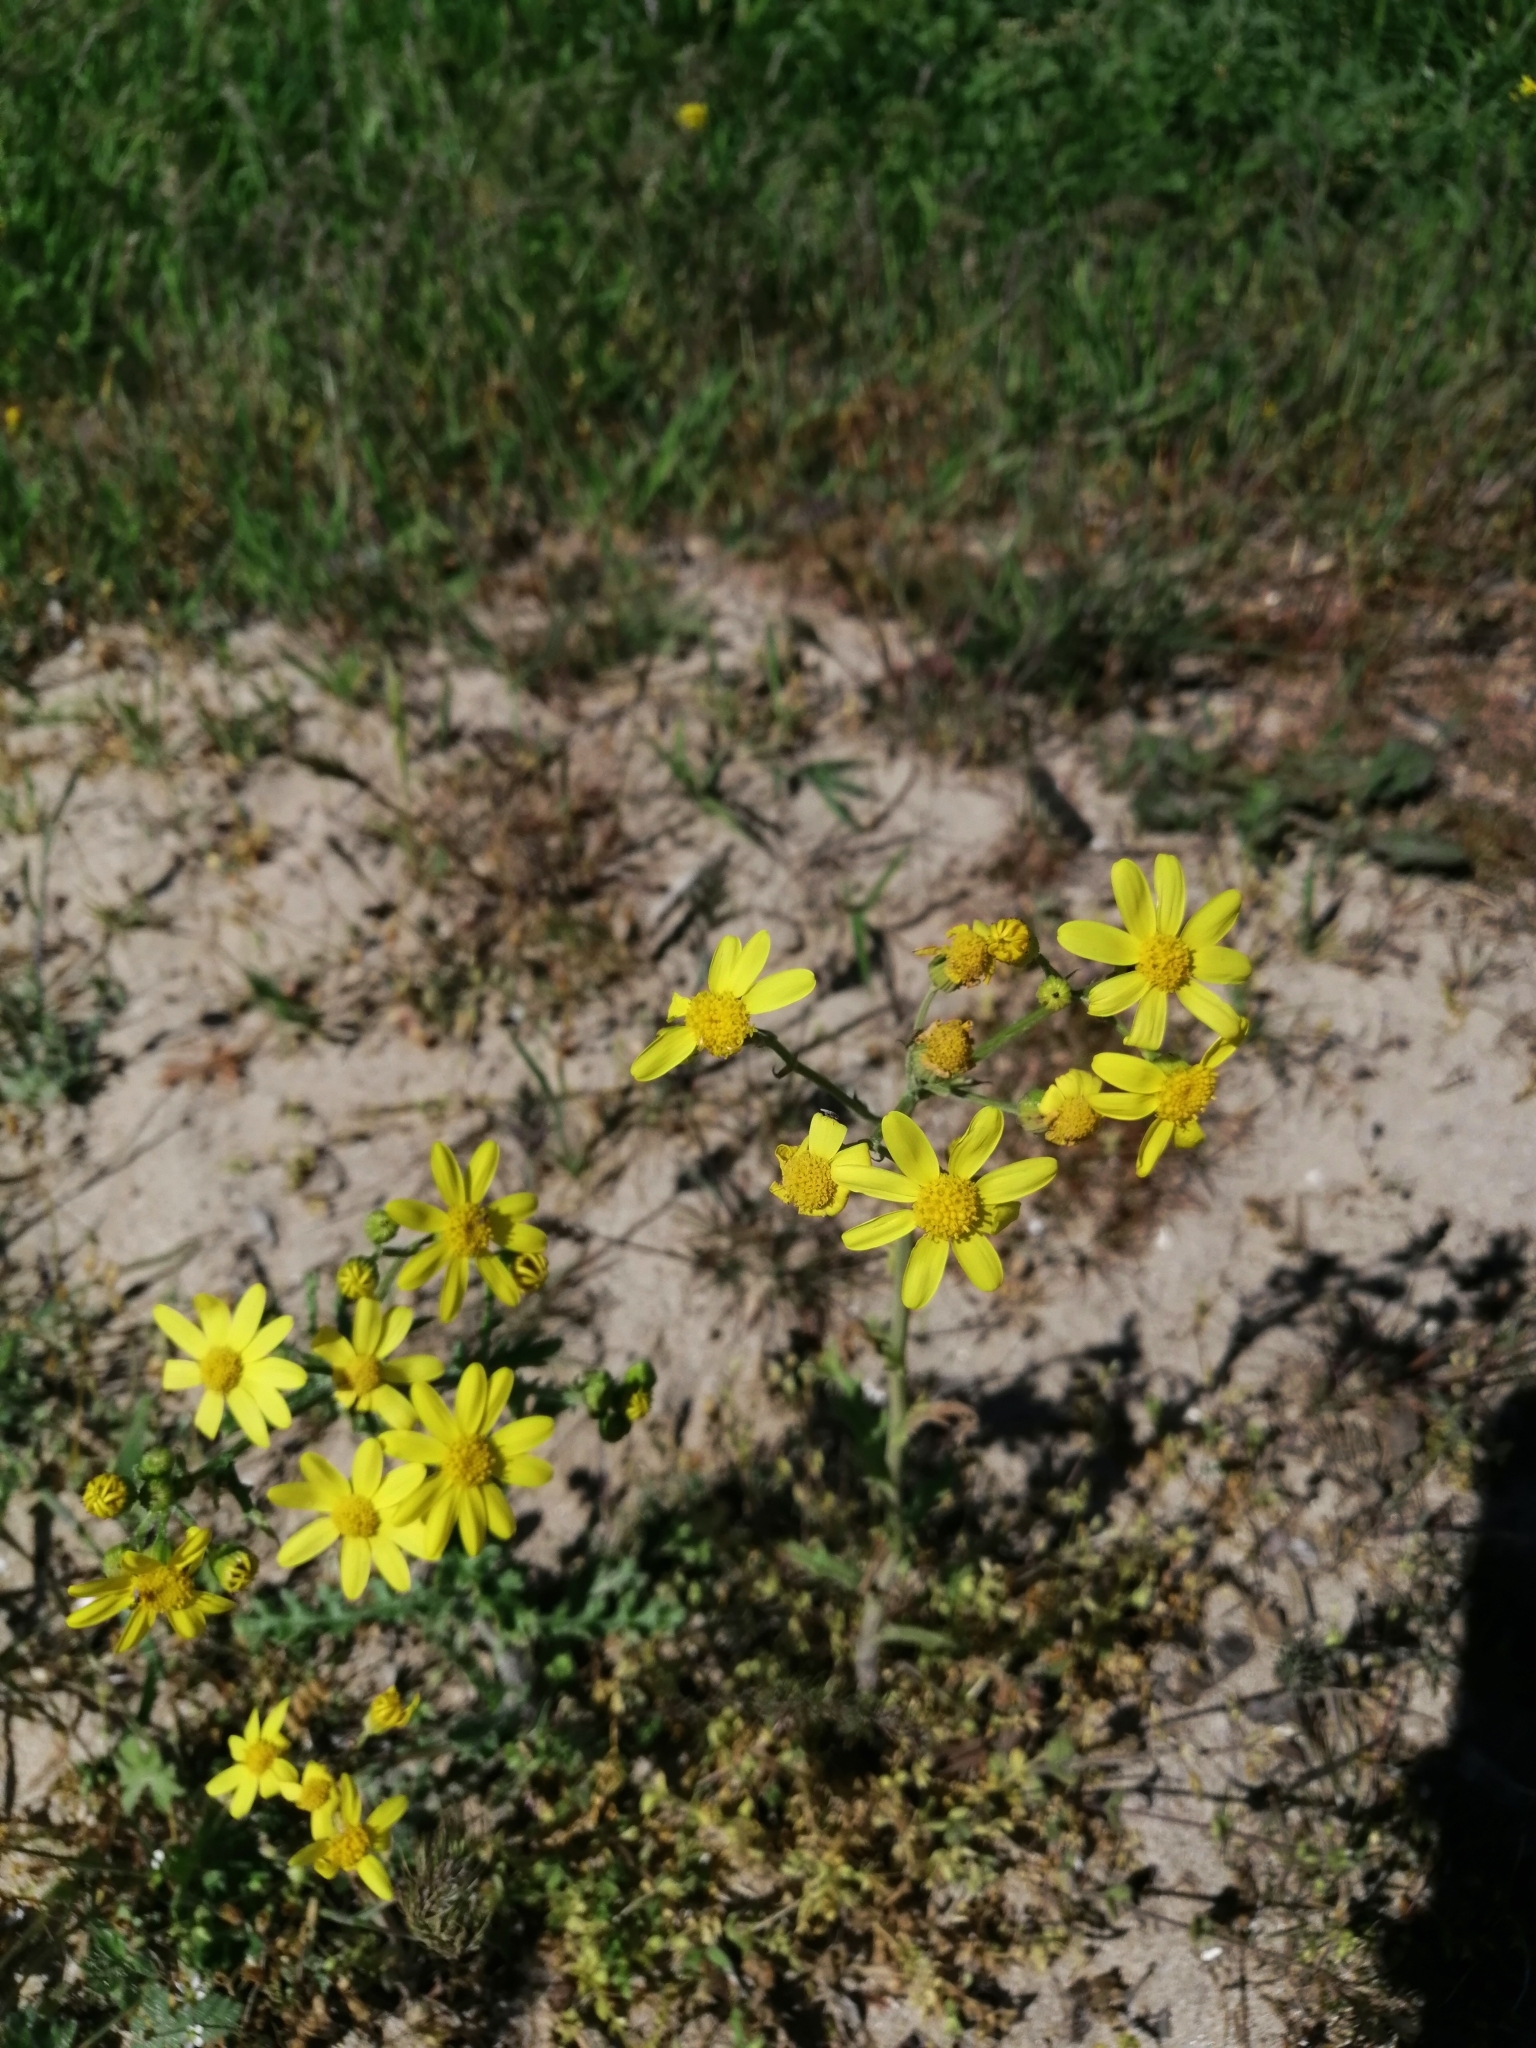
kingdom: Plantae
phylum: Tracheophyta
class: Magnoliopsida
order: Asterales
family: Asteraceae
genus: Senecio
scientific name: Senecio vernalis
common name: Eastern groundsel
